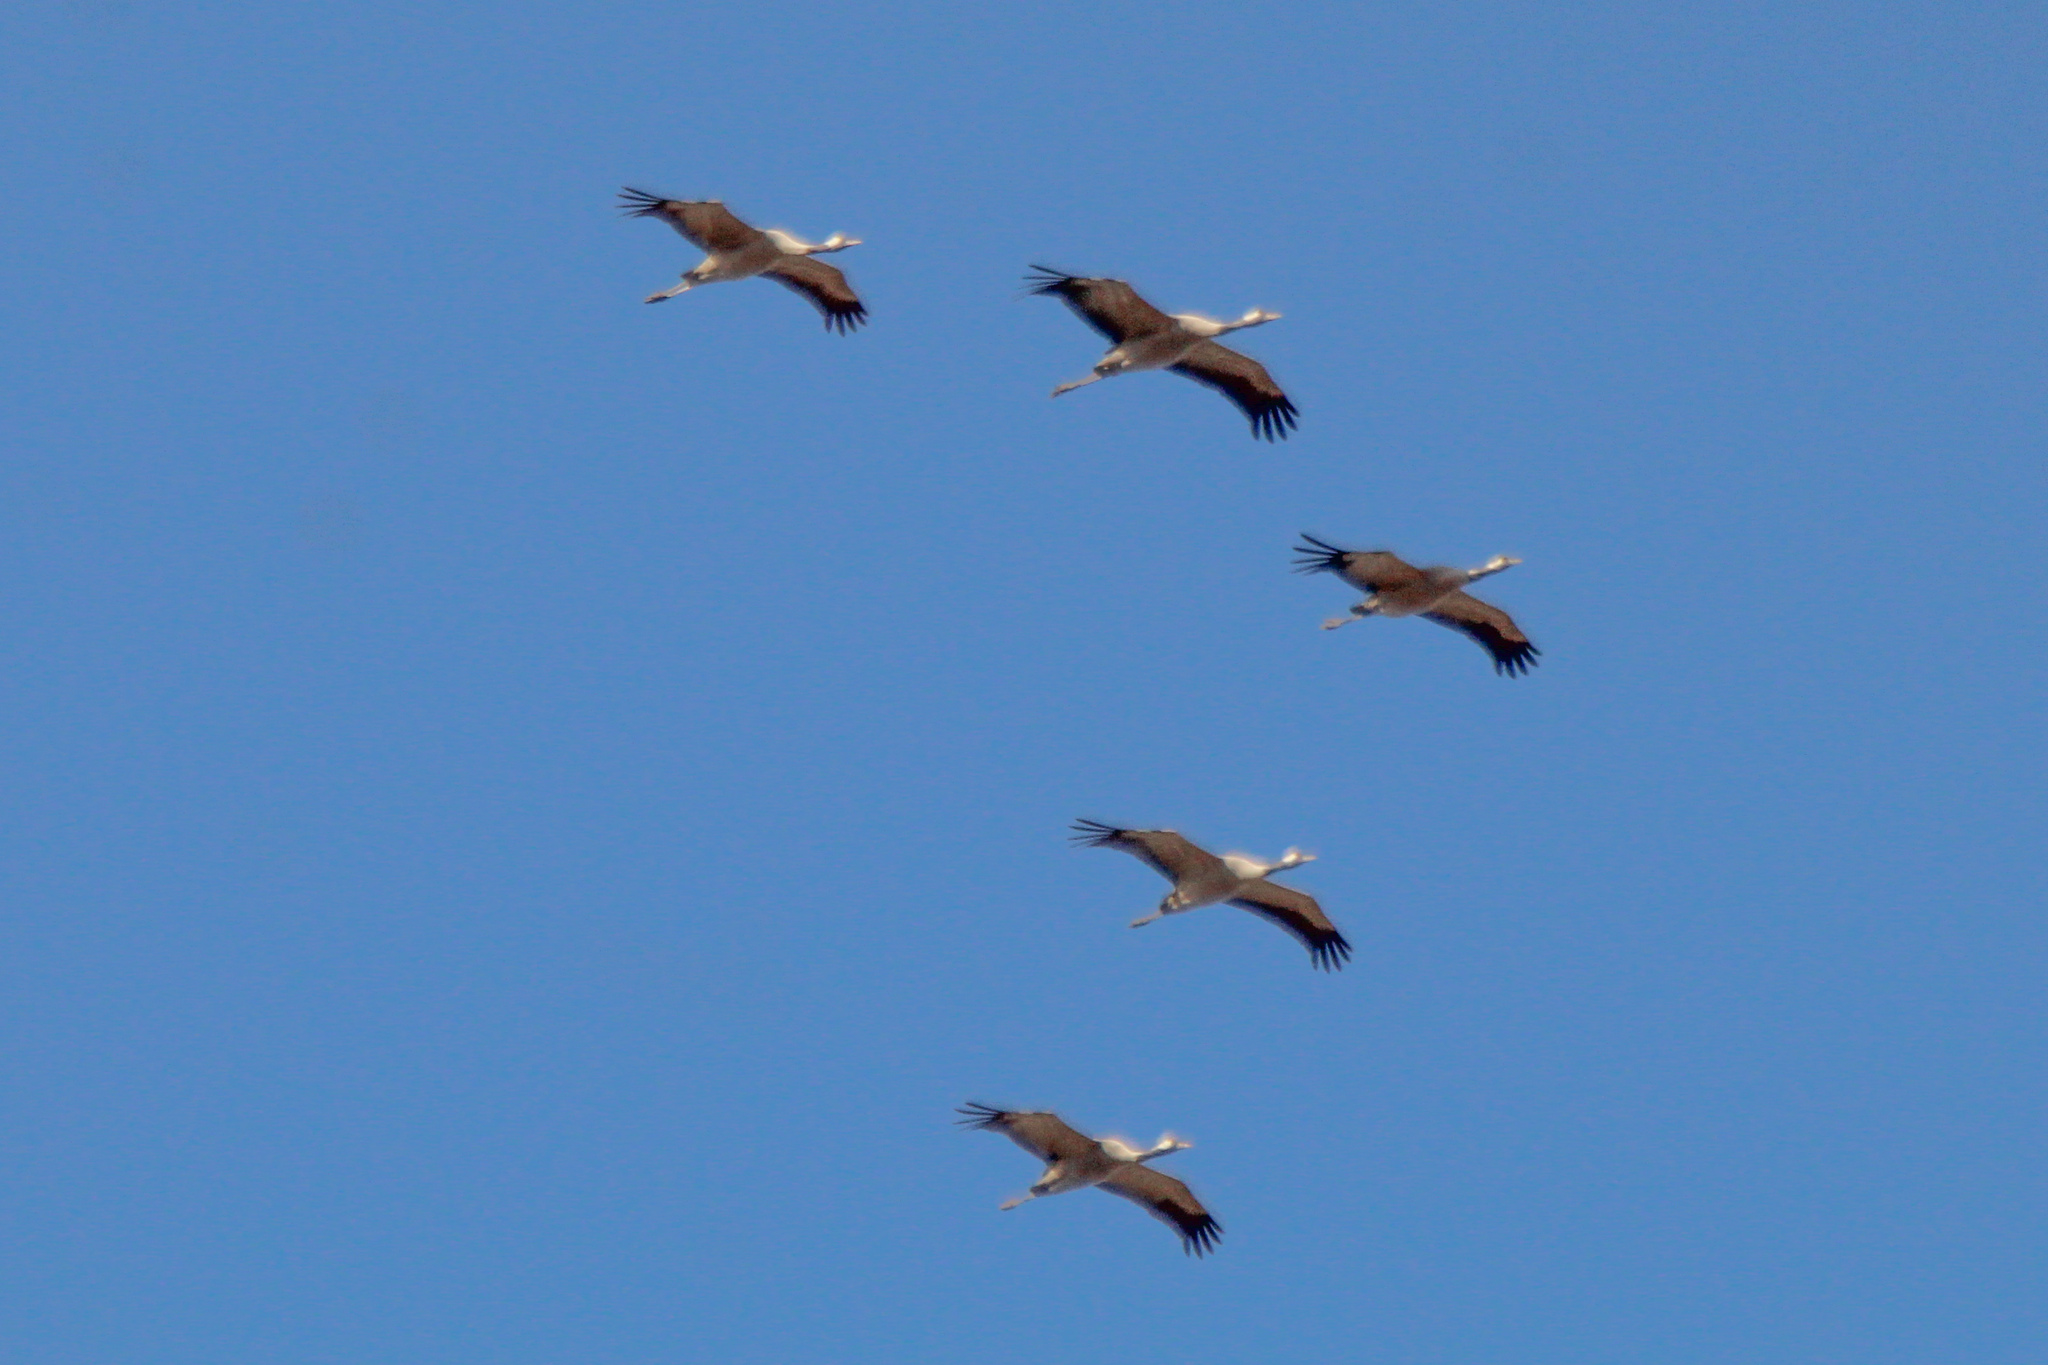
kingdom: Animalia
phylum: Chordata
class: Aves
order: Gruiformes
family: Gruidae
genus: Grus
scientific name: Grus grus
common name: Common crane
